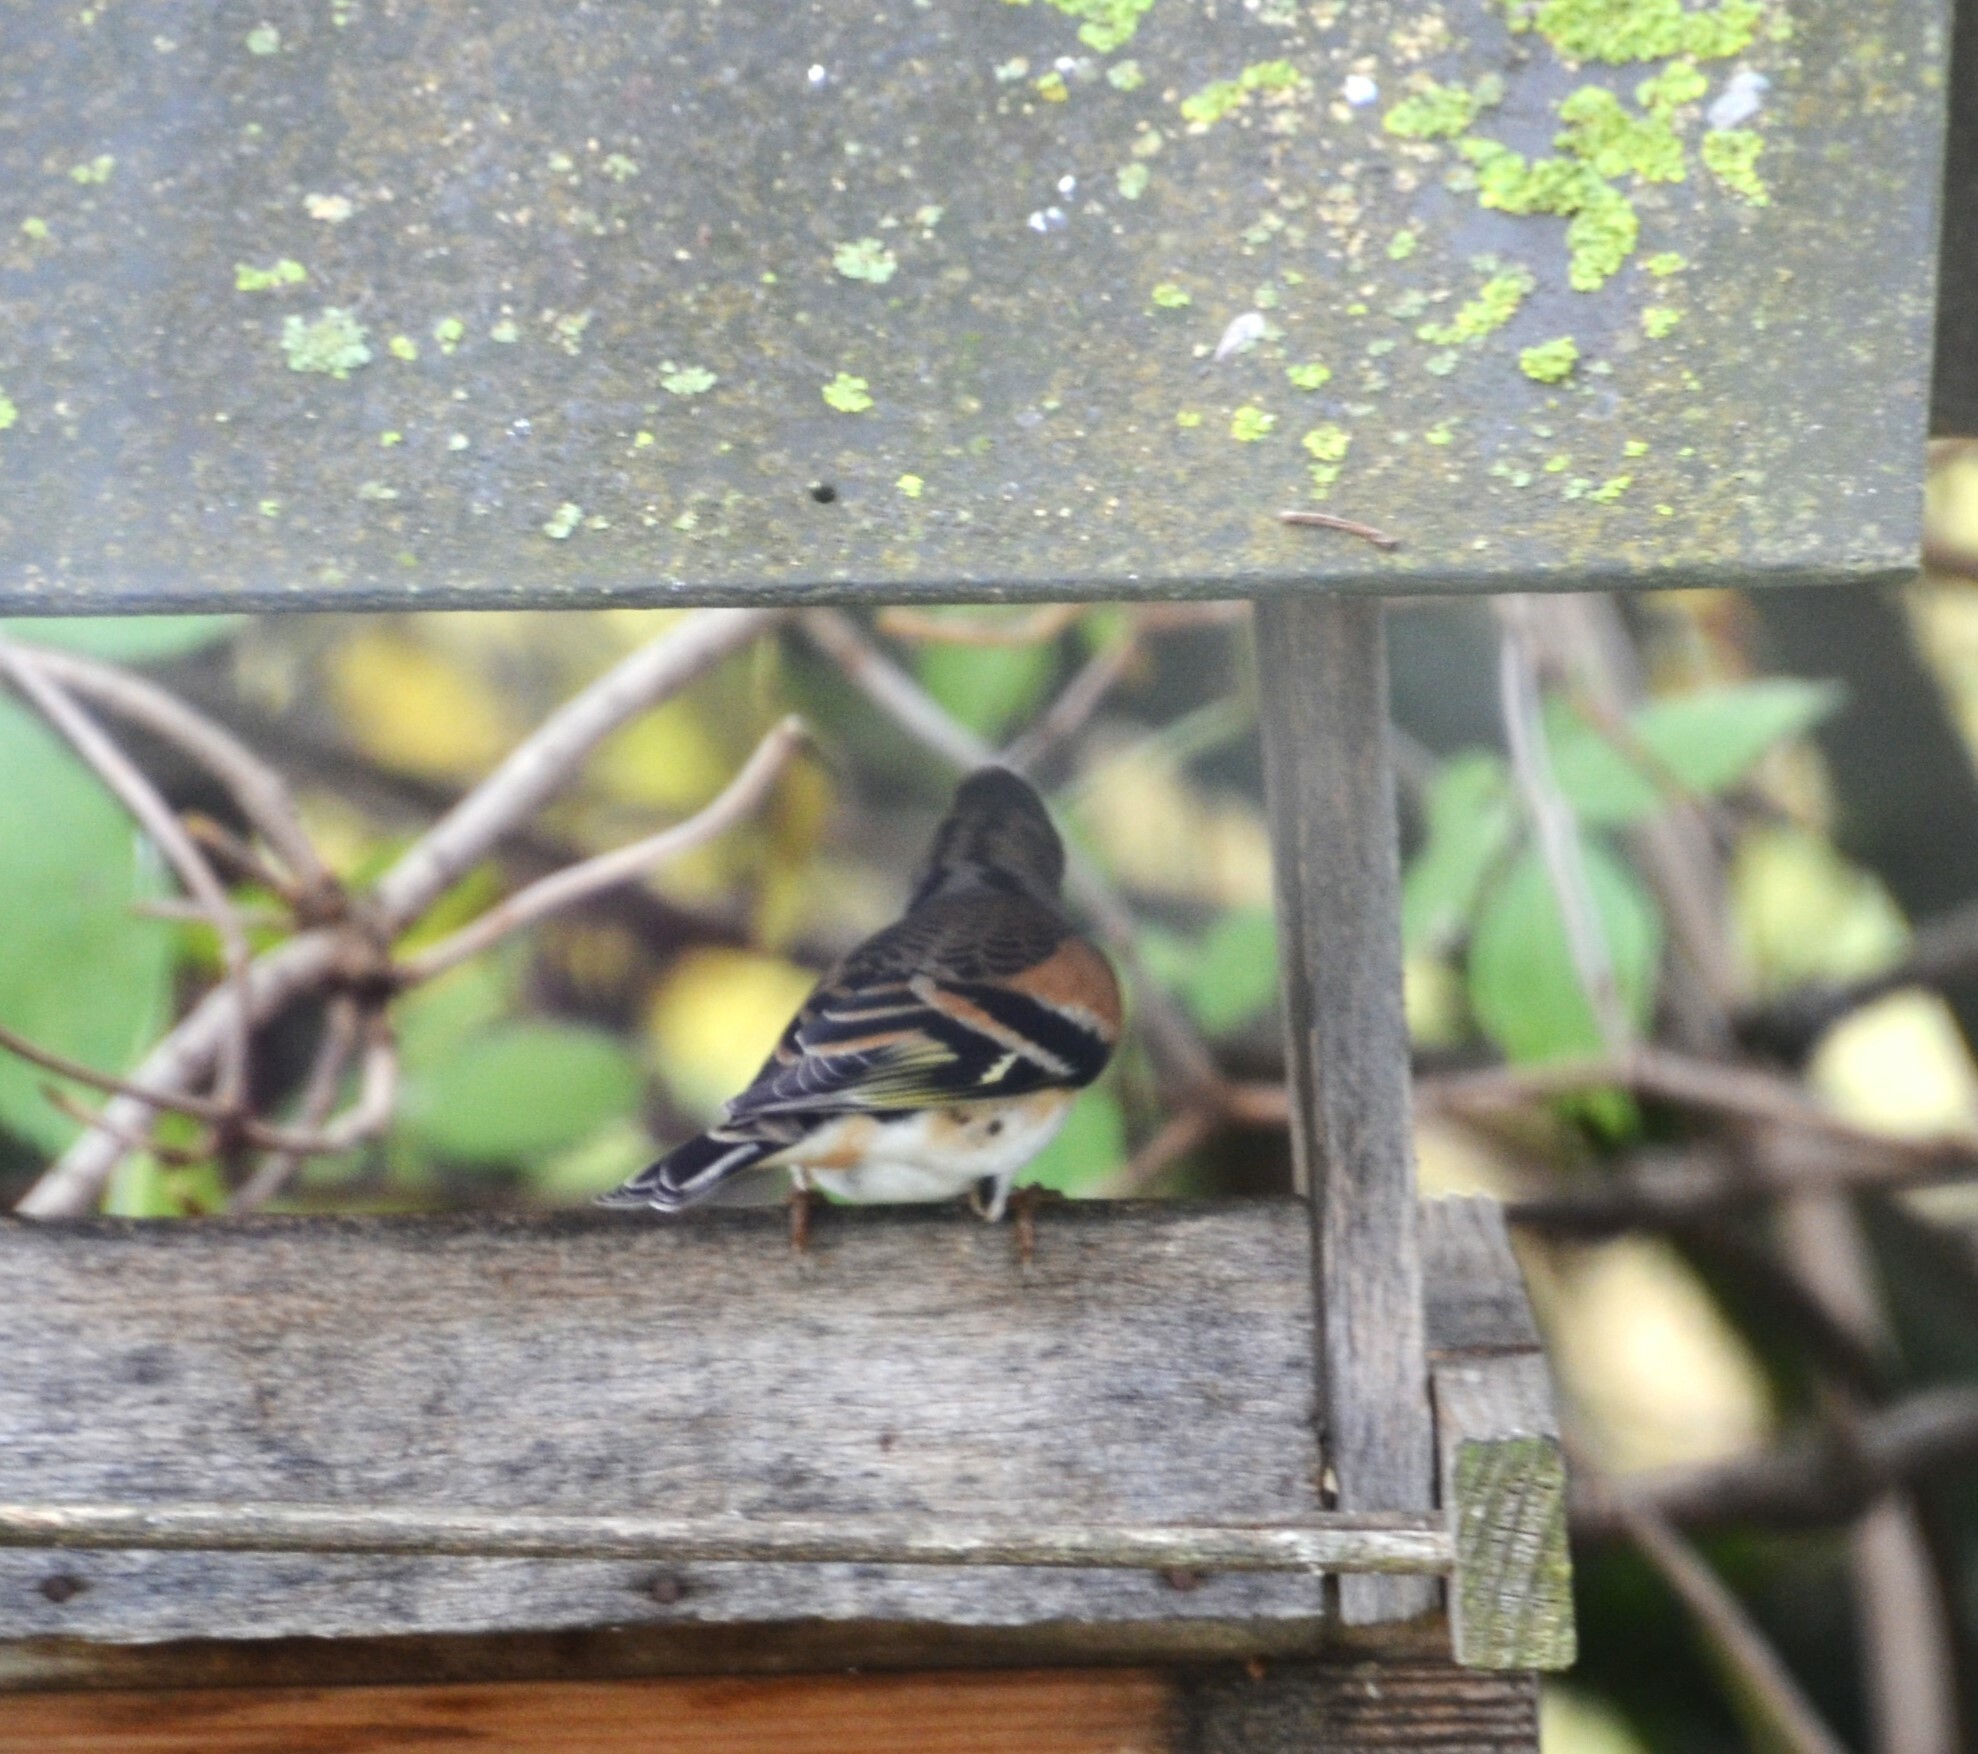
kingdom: Animalia
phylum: Chordata
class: Aves
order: Passeriformes
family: Fringillidae
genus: Fringilla
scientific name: Fringilla montifringilla
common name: Brambling
